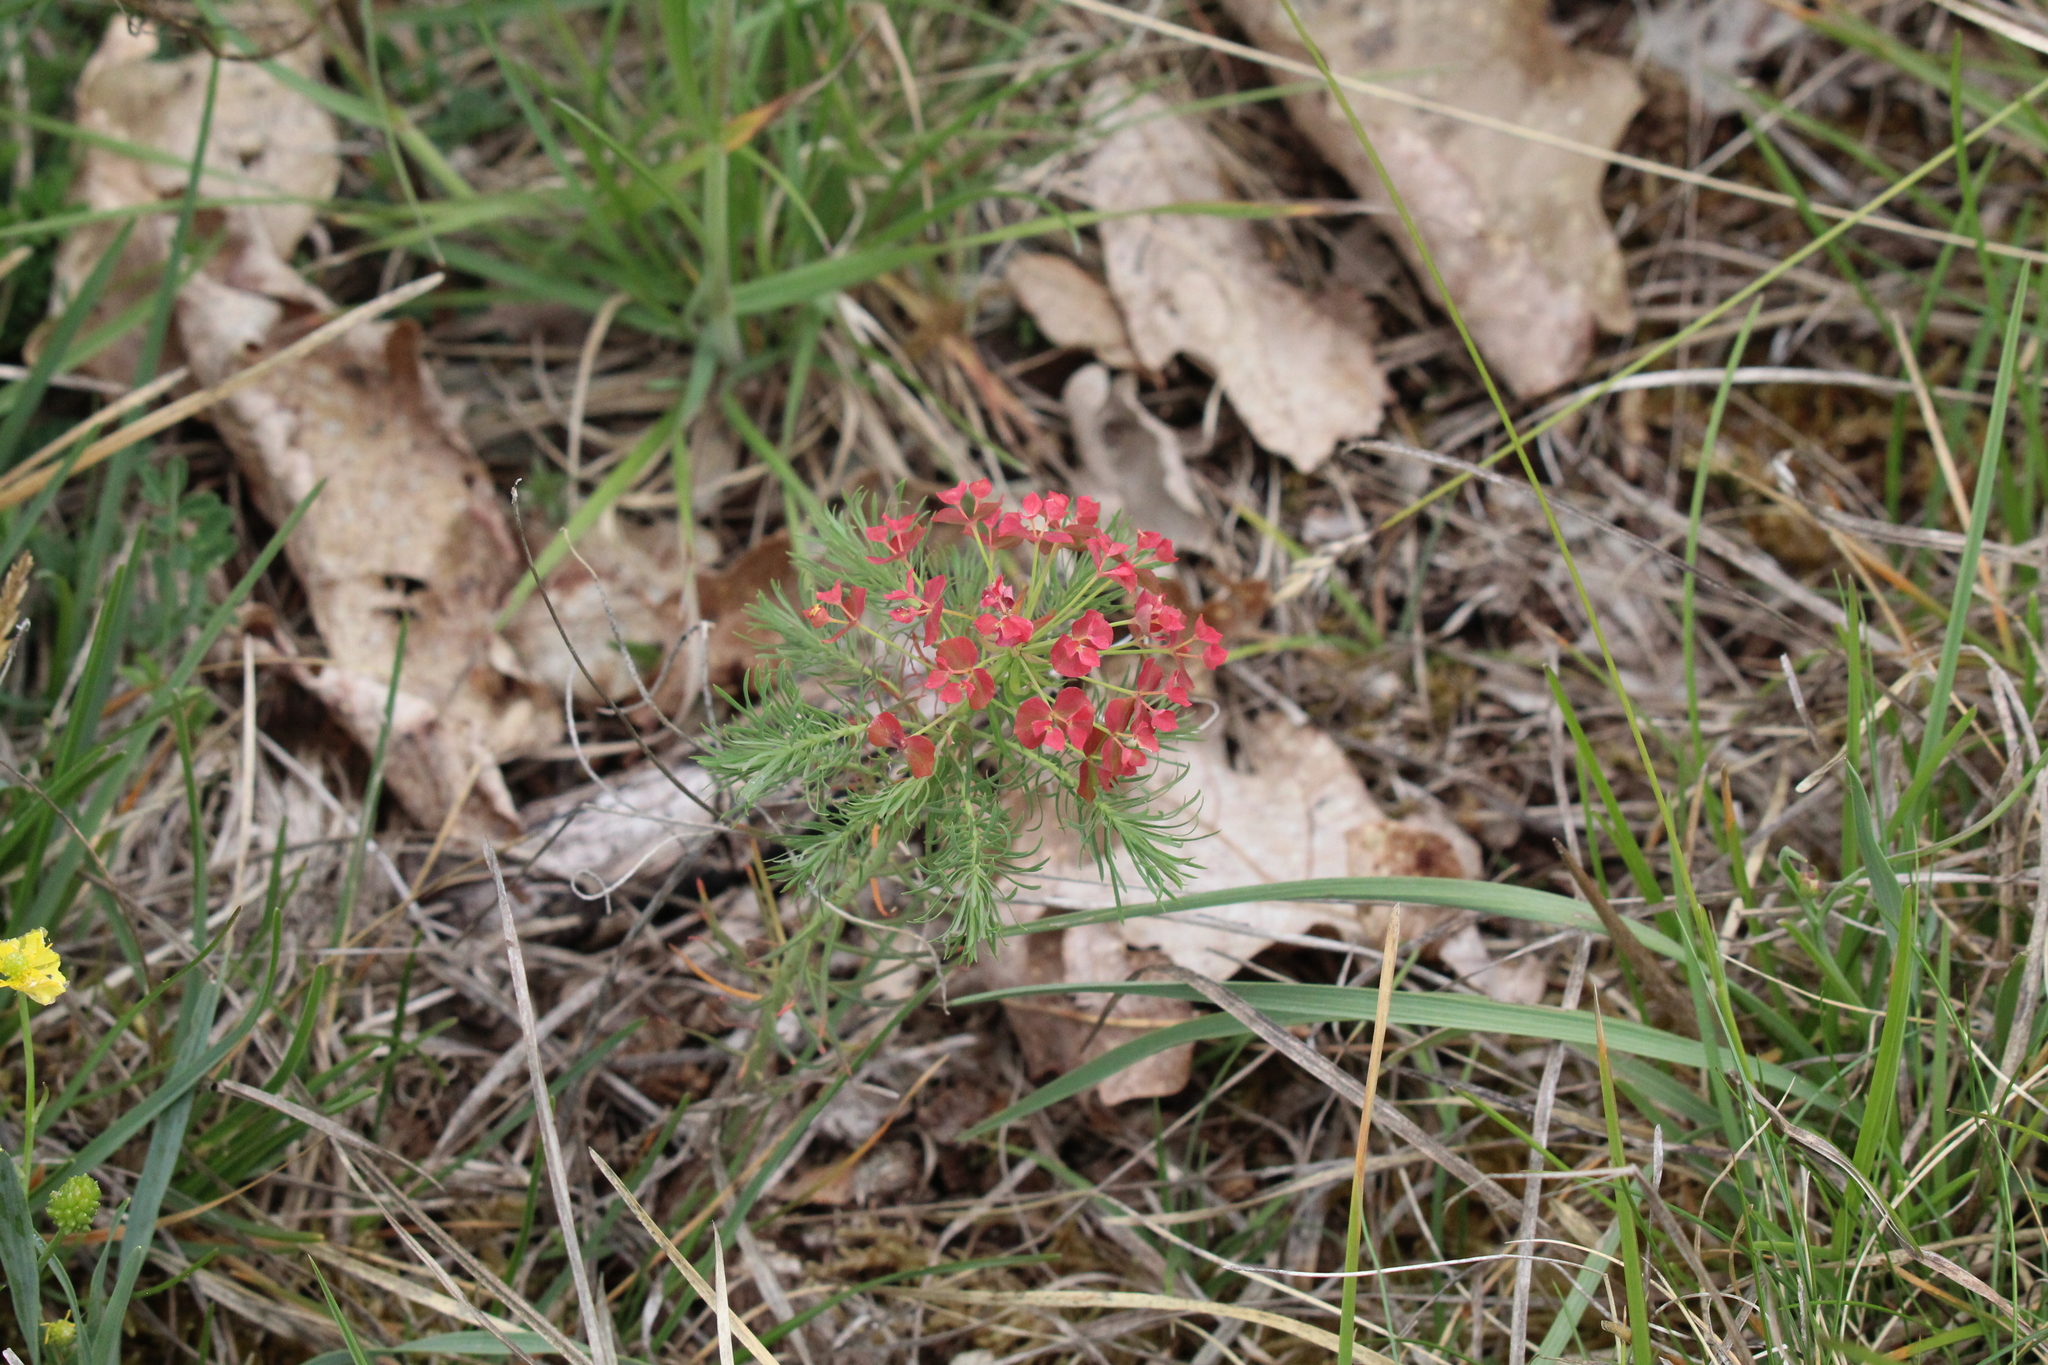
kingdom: Plantae
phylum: Tracheophyta
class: Magnoliopsida
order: Malpighiales
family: Euphorbiaceae
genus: Euphorbia
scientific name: Euphorbia cyparissias
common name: Cypress spurge
